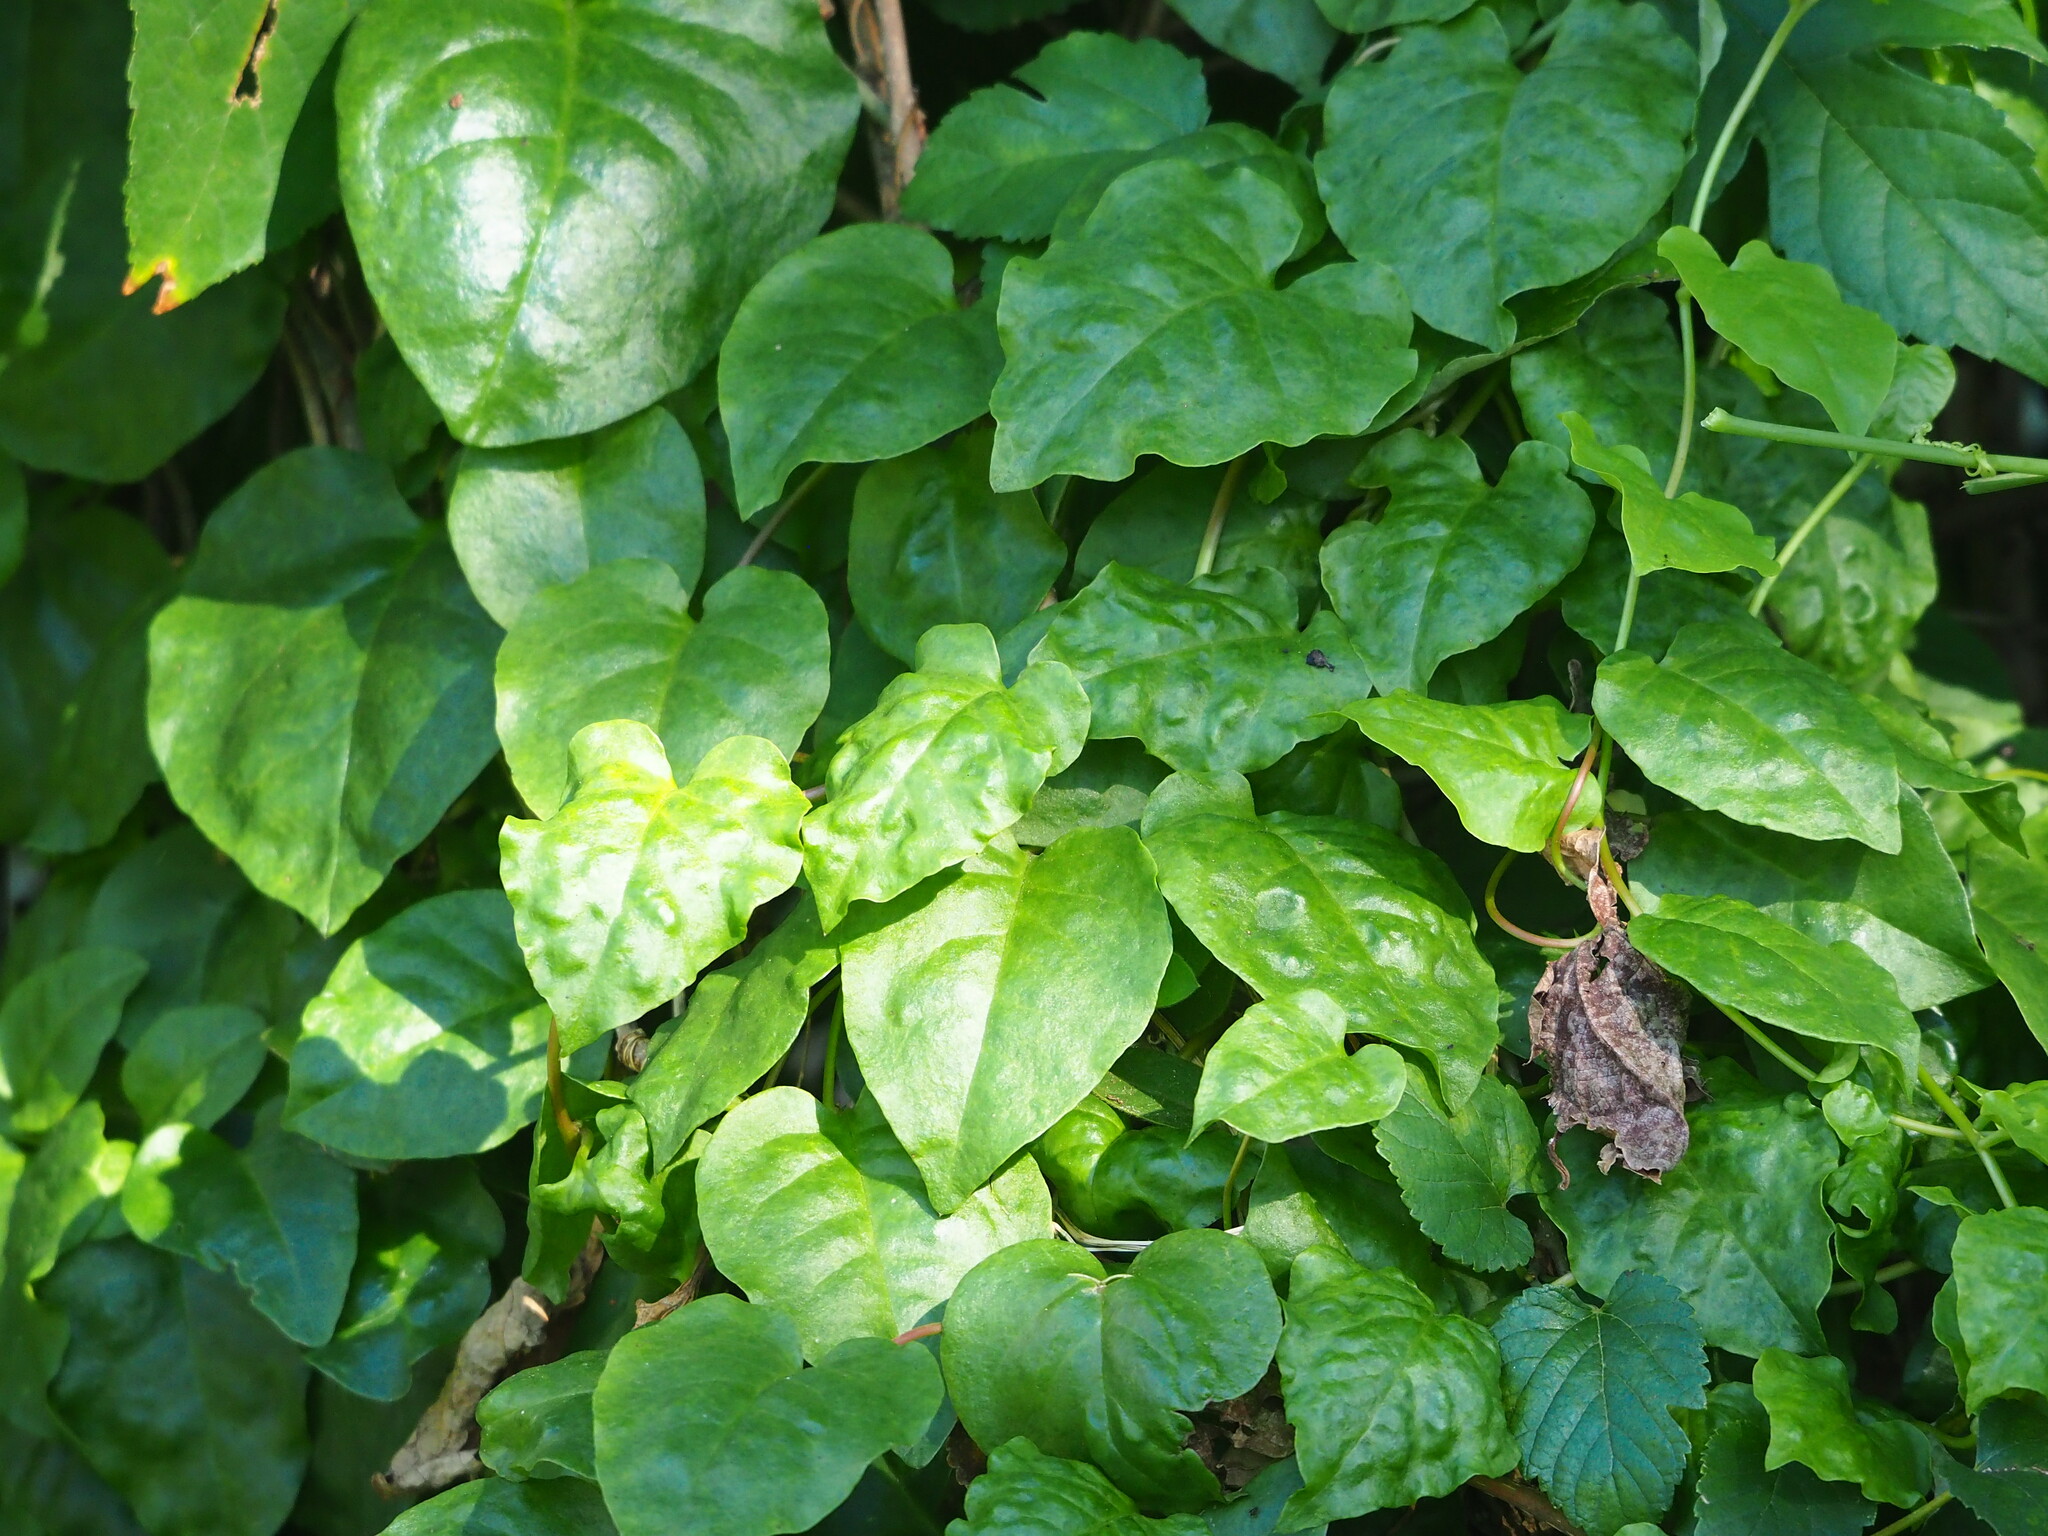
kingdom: Plantae
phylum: Tracheophyta
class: Magnoliopsida
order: Caryophyllales
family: Basellaceae
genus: Anredera
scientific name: Anredera cordifolia
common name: Heartleaf madeiravine
